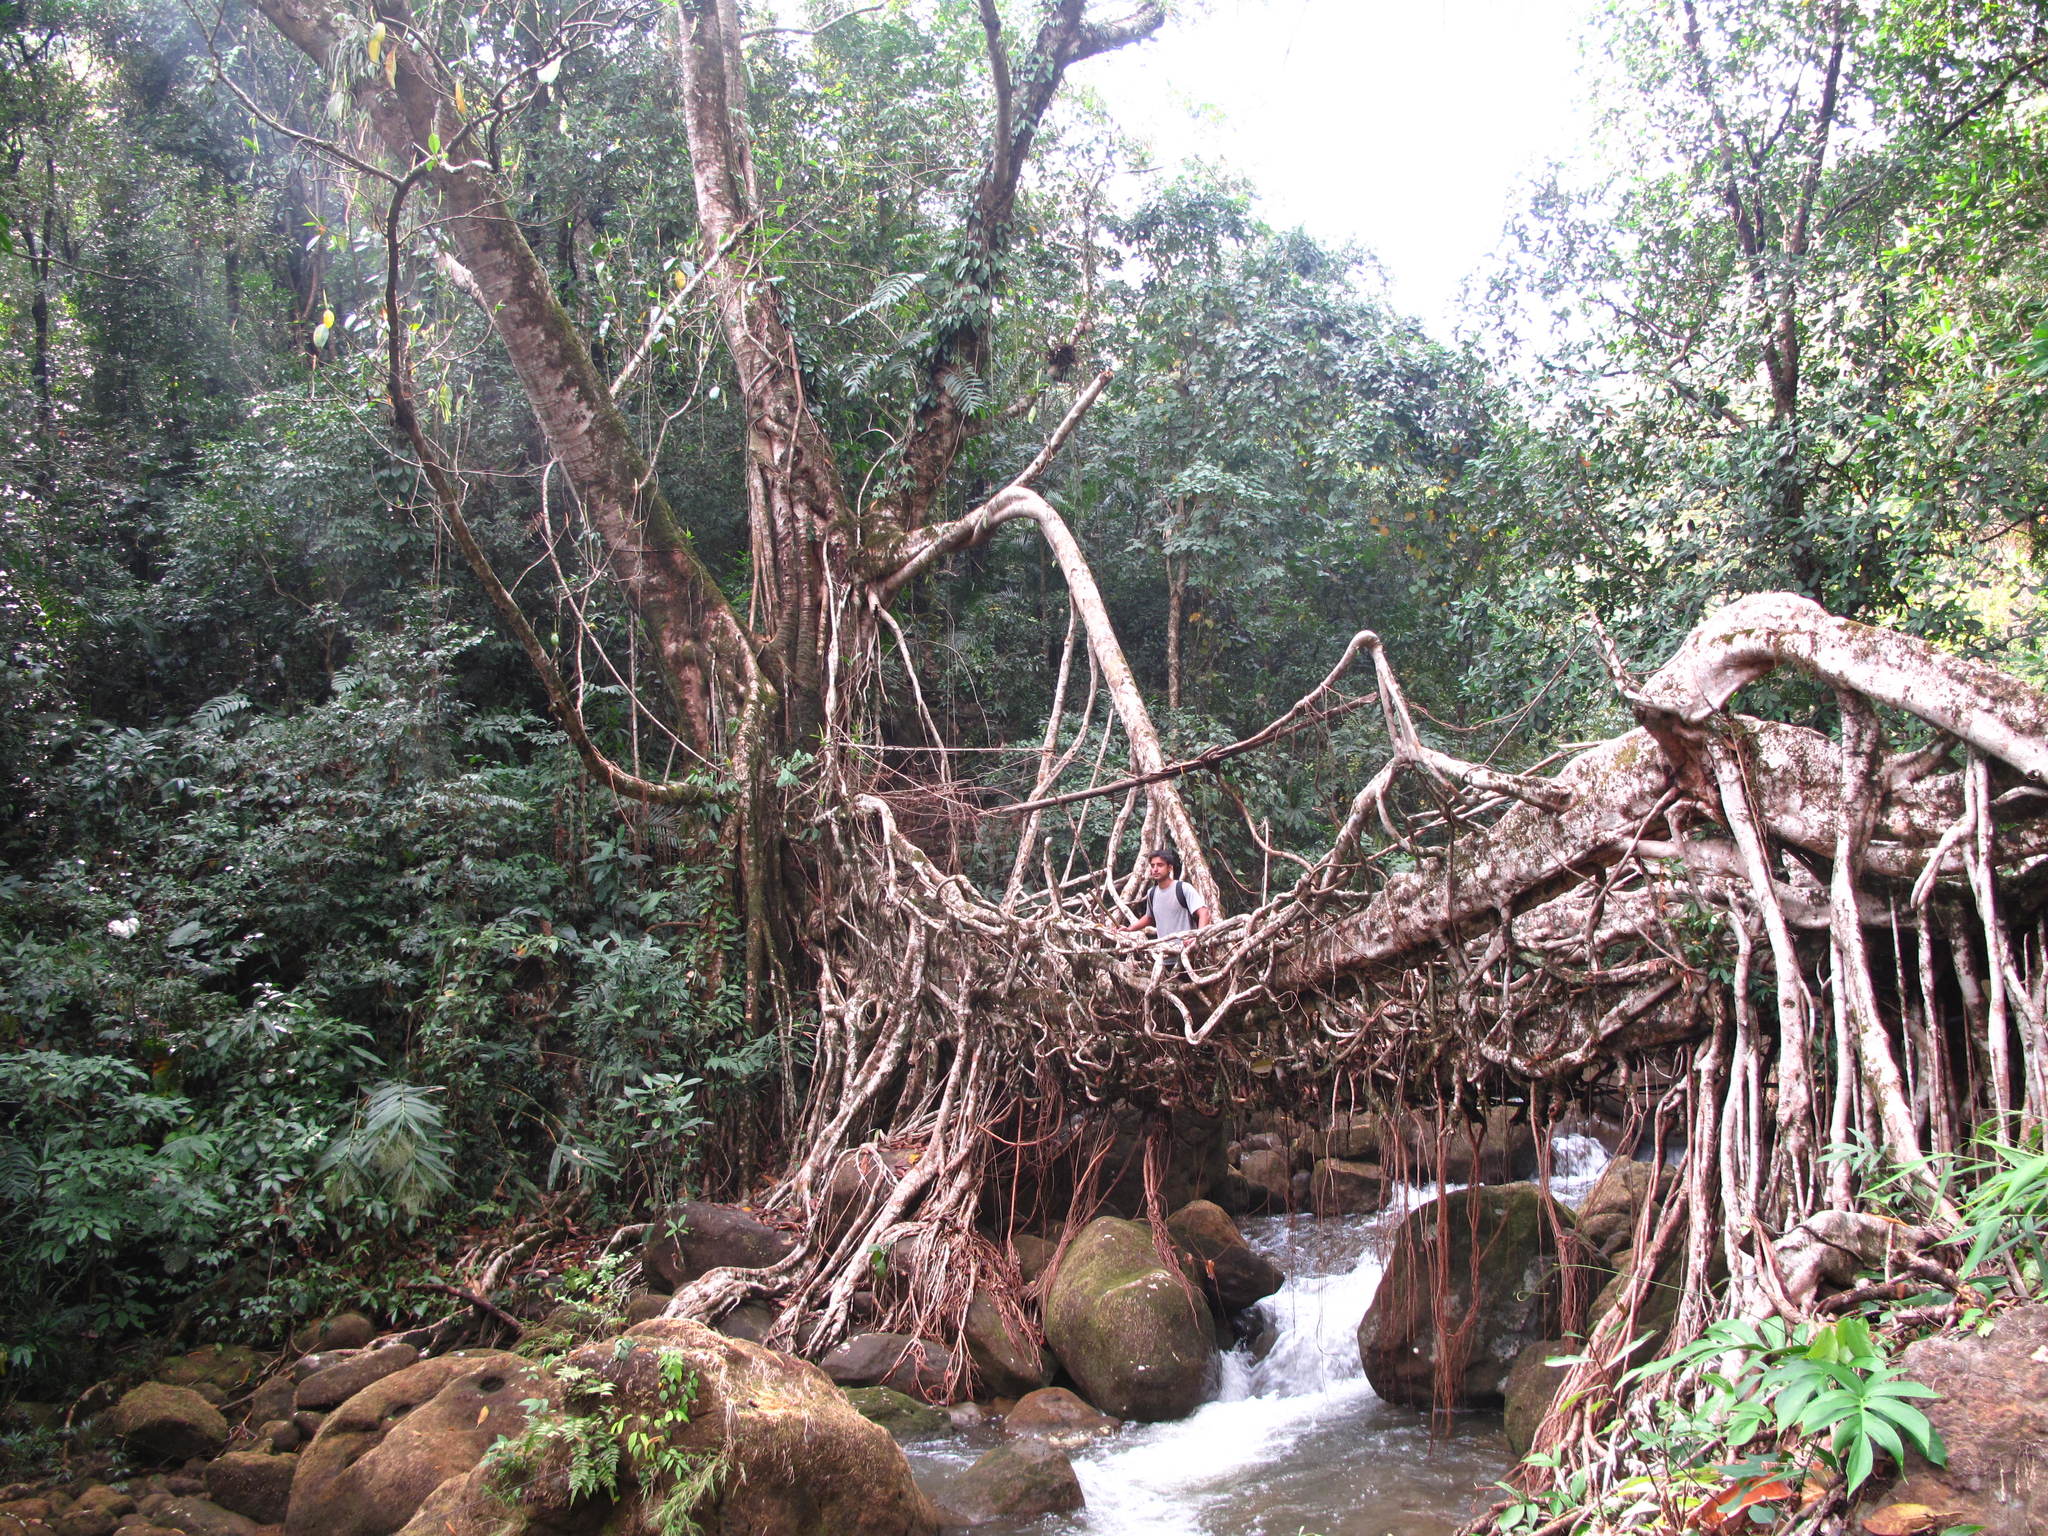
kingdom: Plantae
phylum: Tracheophyta
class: Magnoliopsida
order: Rosales
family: Moraceae
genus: Ficus
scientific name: Ficus elastica
